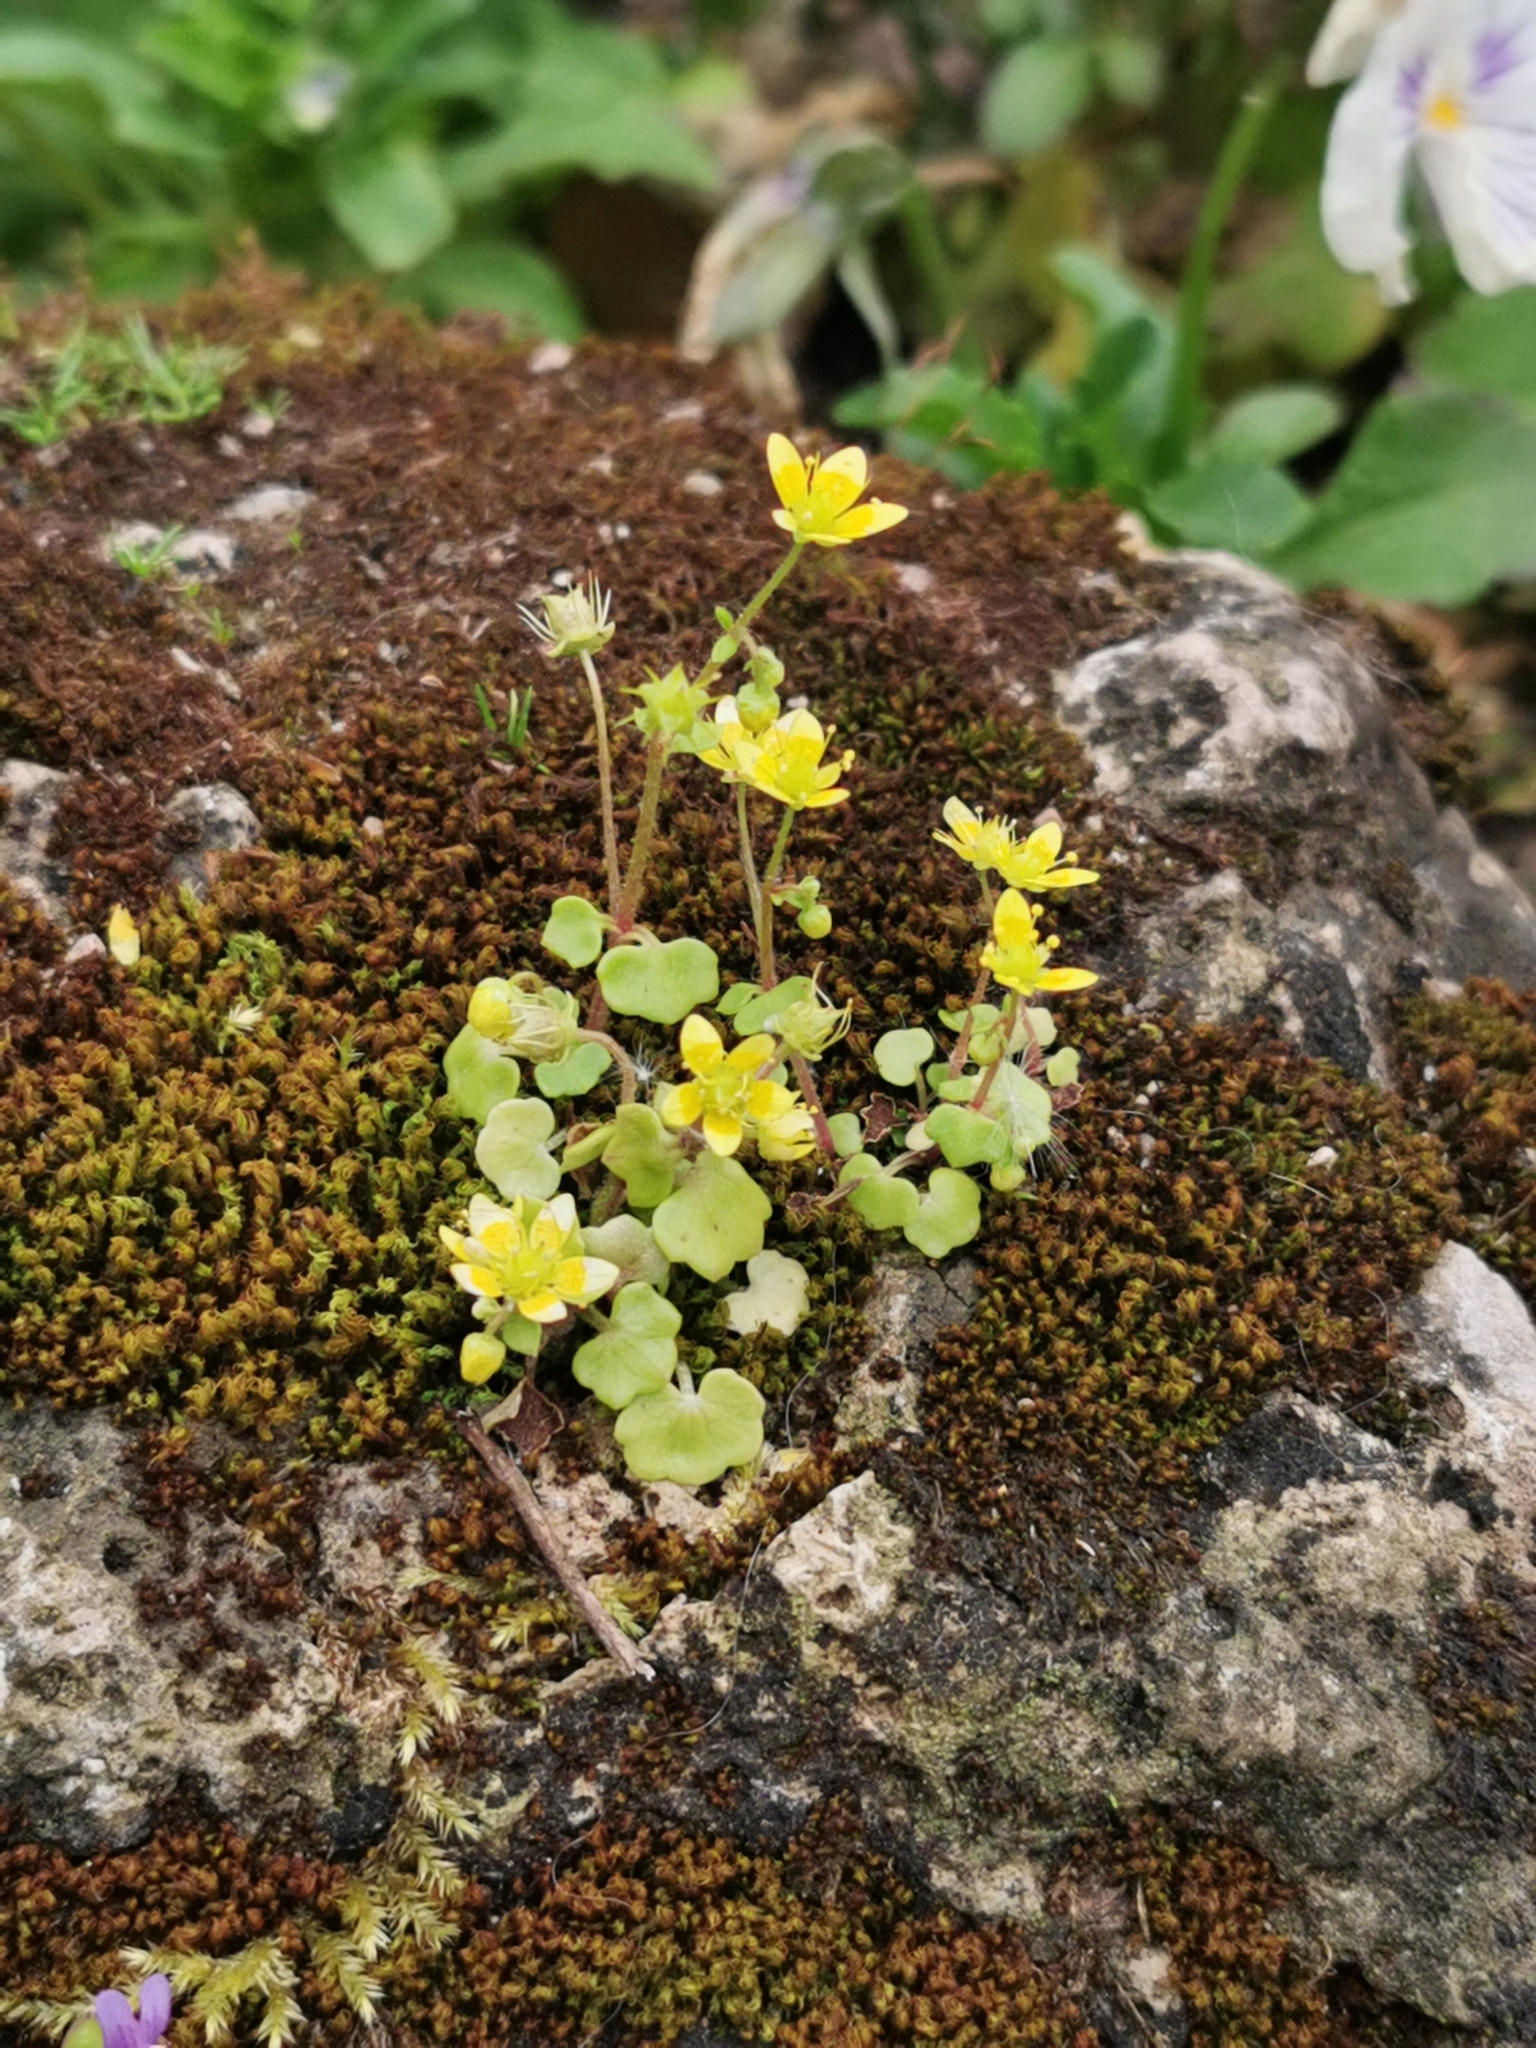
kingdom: Plantae
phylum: Tracheophyta
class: Magnoliopsida
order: Saxifragales
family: Saxifragaceae
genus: Saxifraga
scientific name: Saxifraga cymbalaria
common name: Celandine saxifrage
